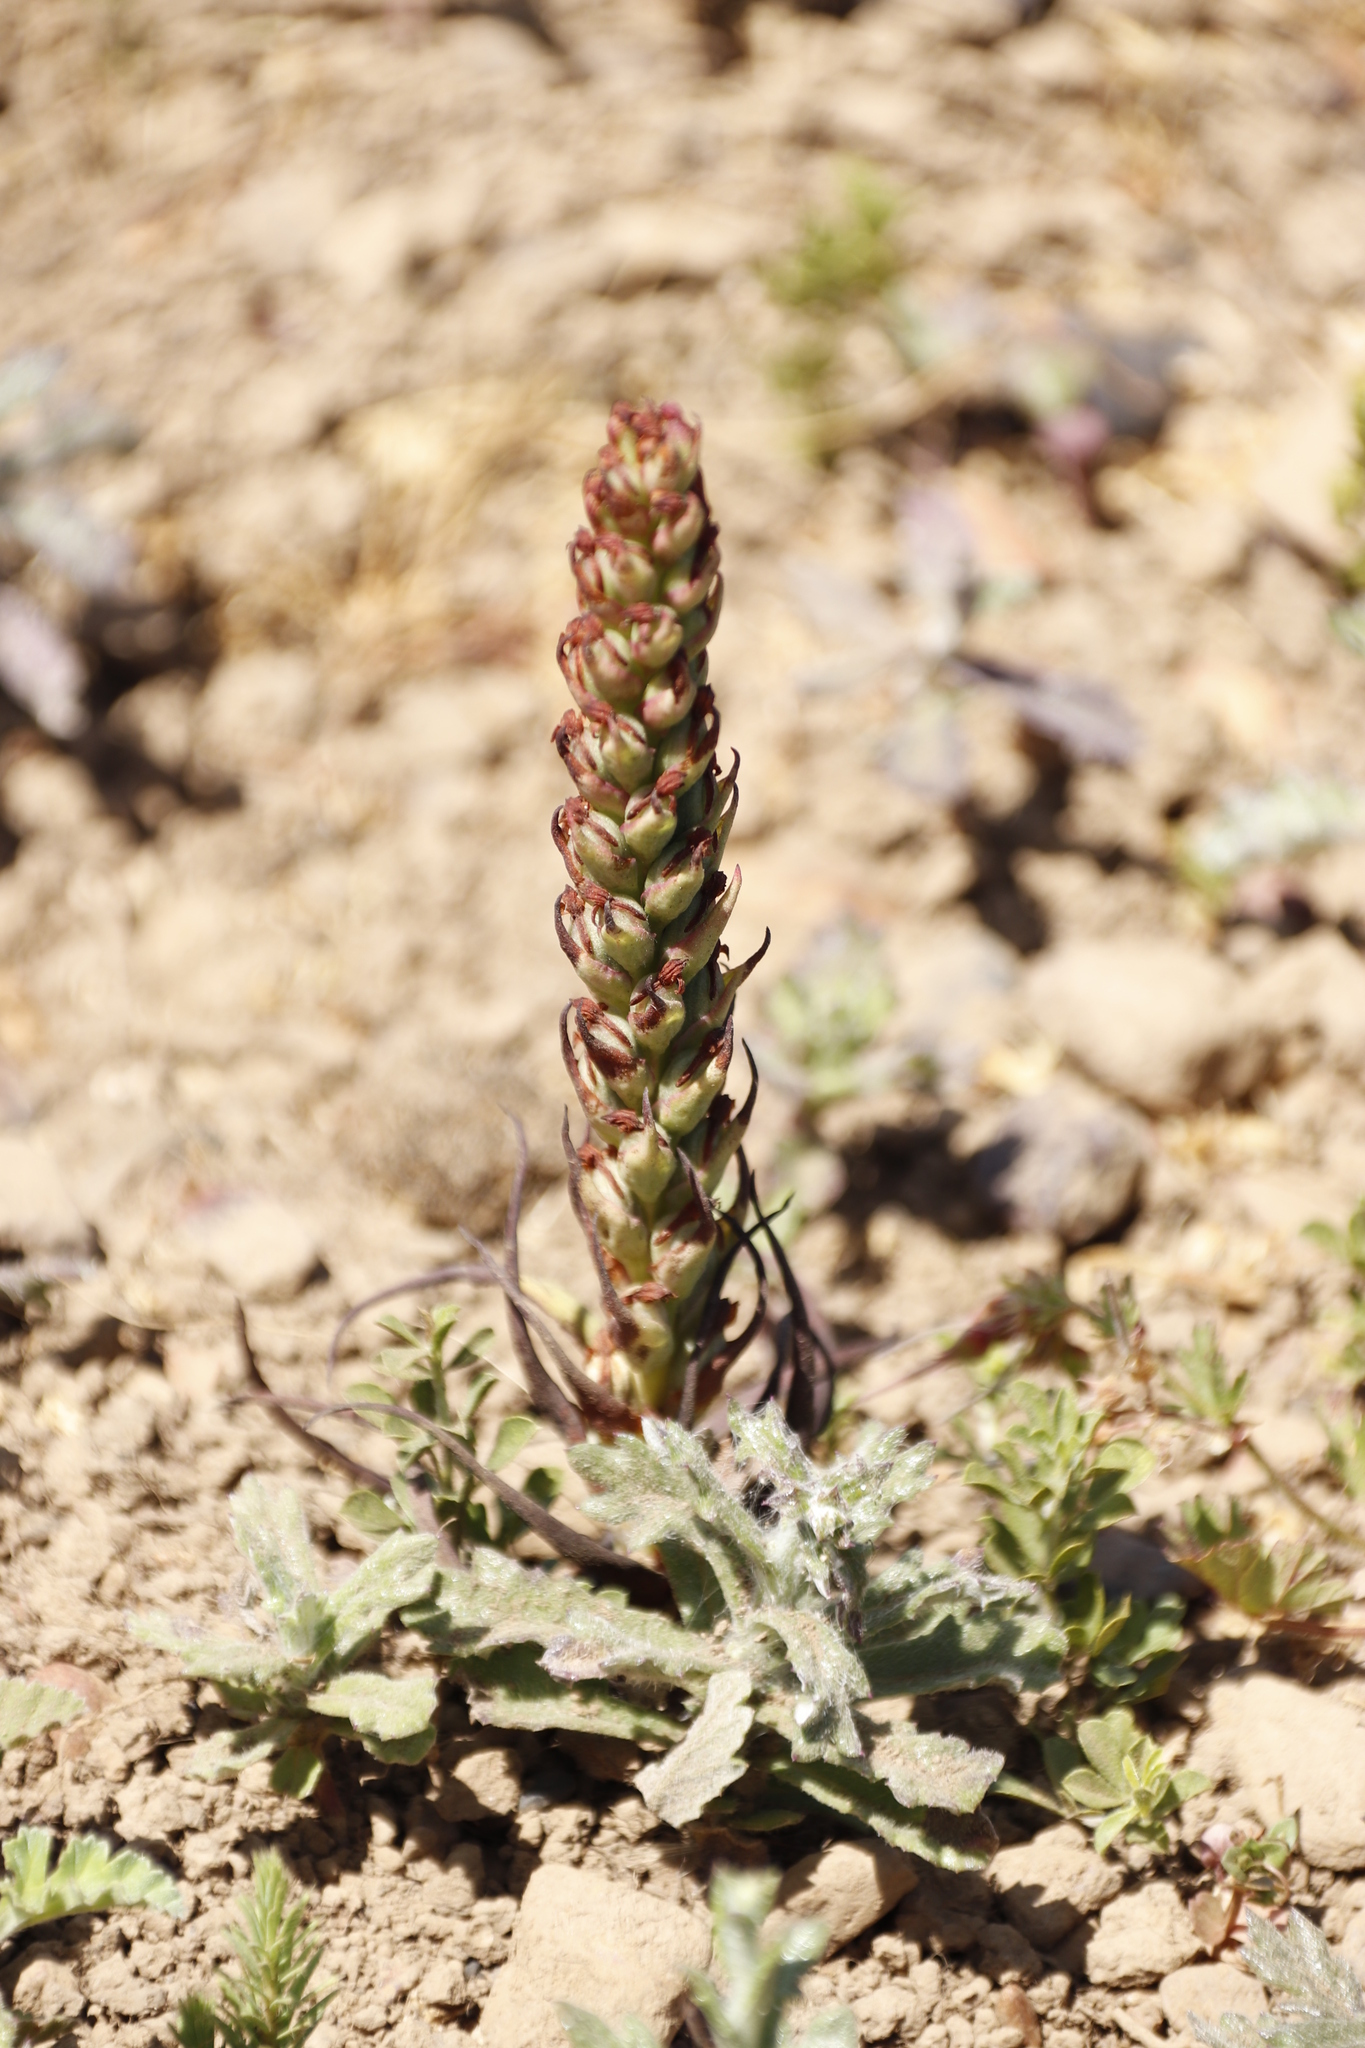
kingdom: Plantae
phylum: Tracheophyta
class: Liliopsida
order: Asparagales
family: Orchidaceae
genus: Disa
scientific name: Disa bracteata
